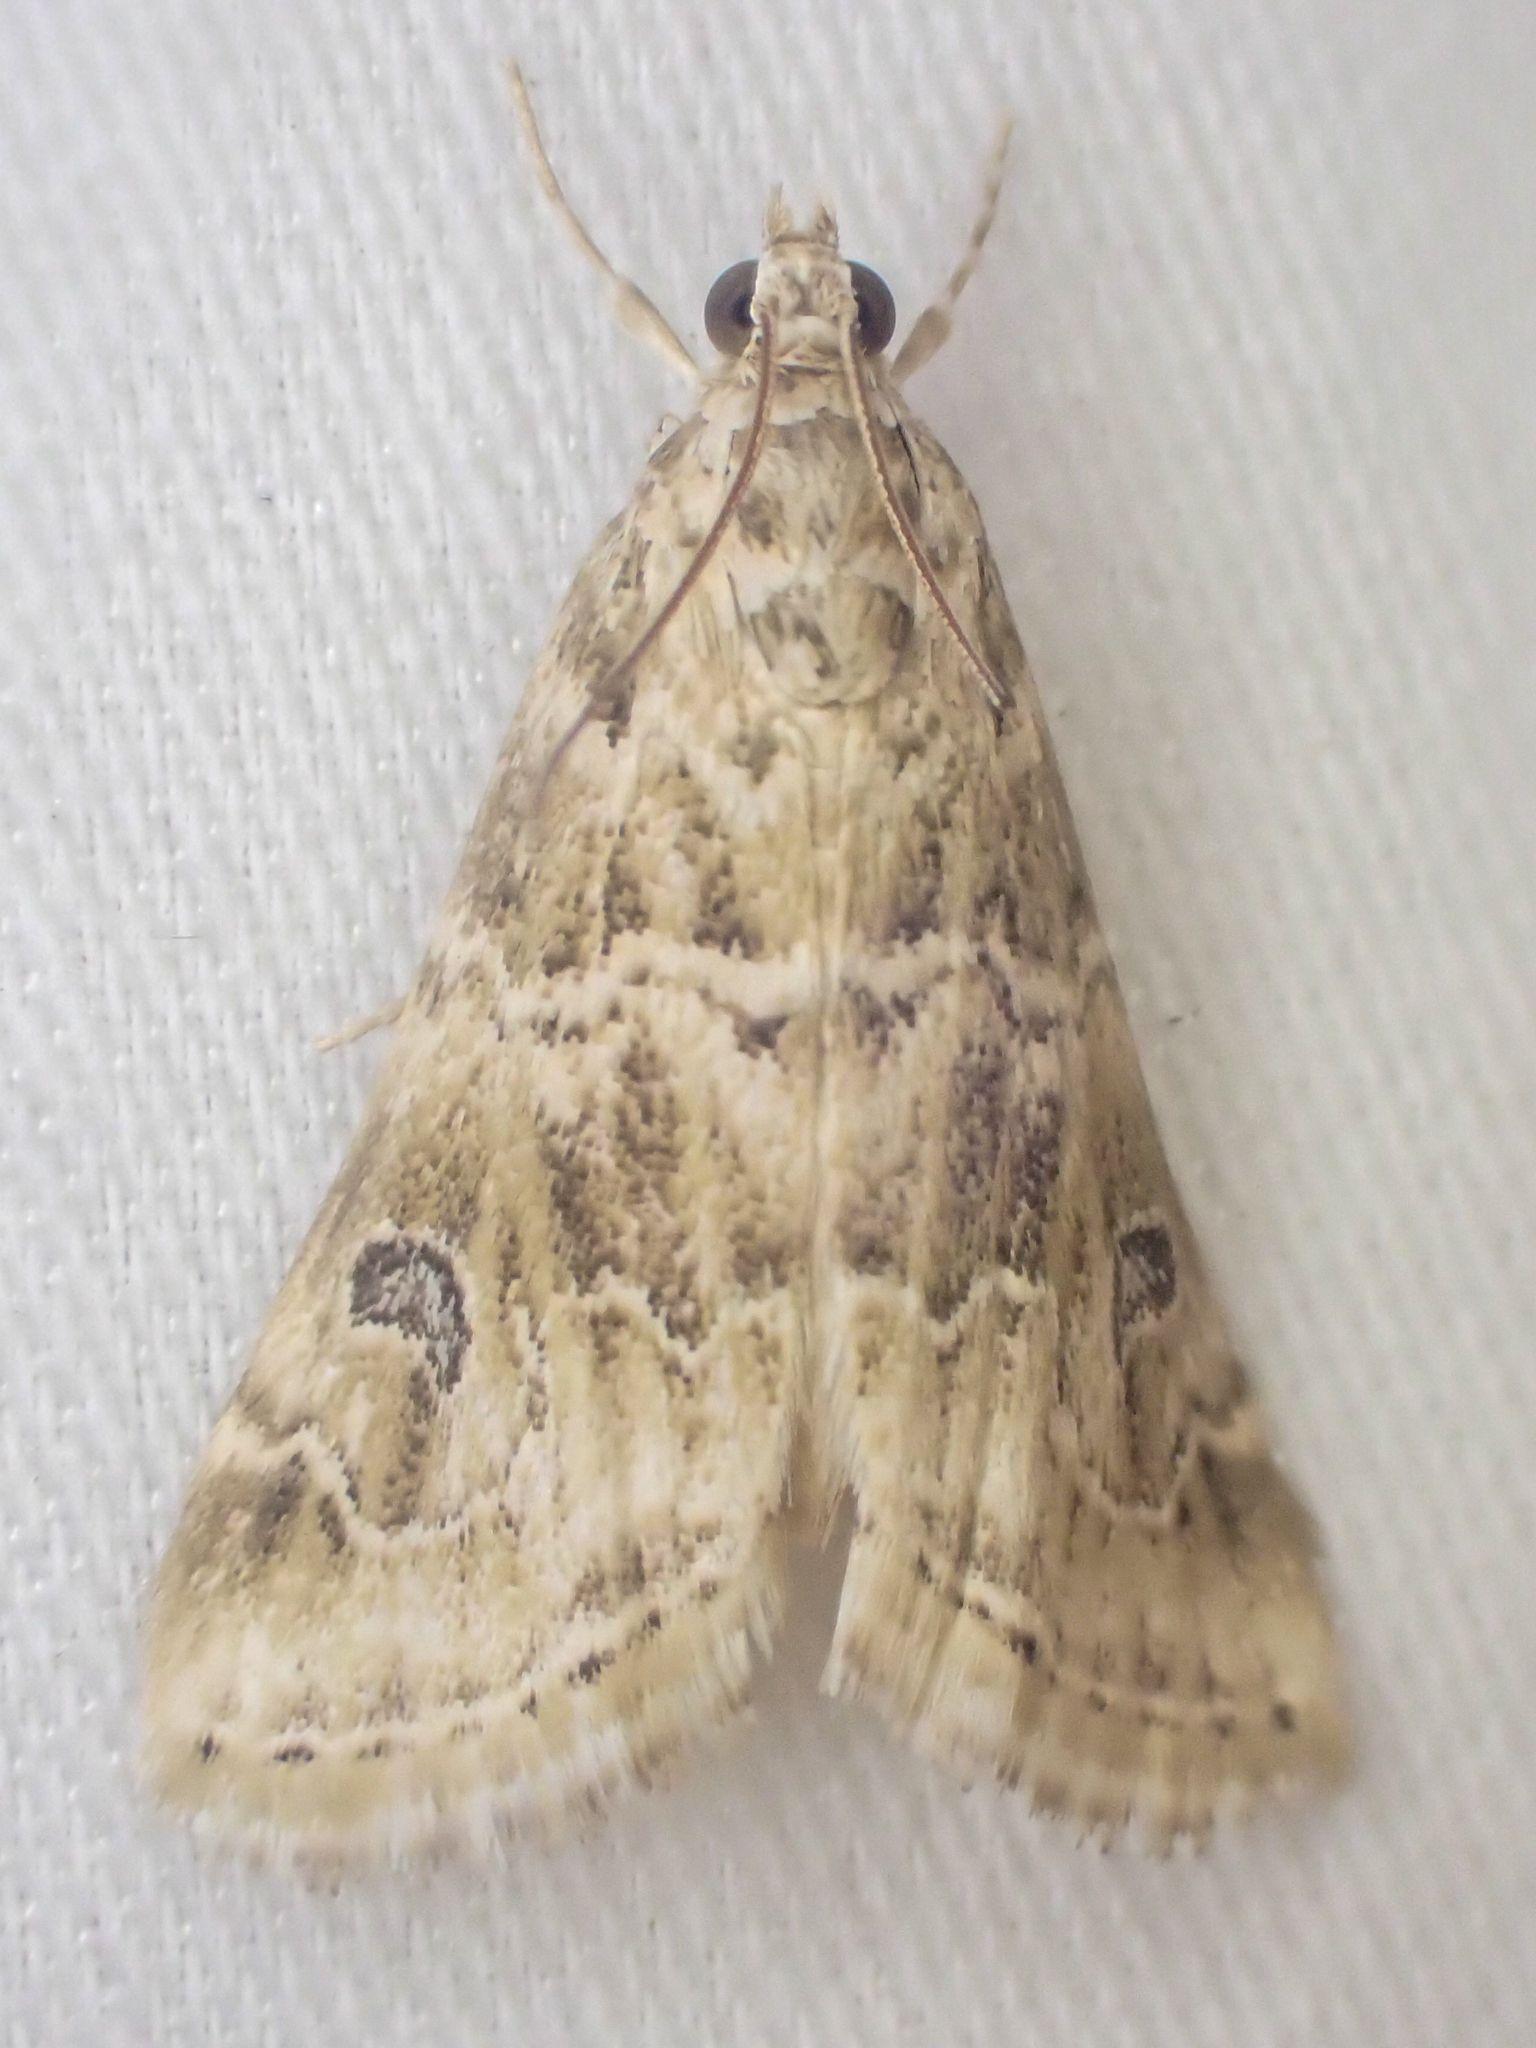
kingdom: Animalia
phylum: Arthropoda
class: Insecta
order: Lepidoptera
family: Crambidae
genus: Hellula
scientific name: Hellula rogatalis
